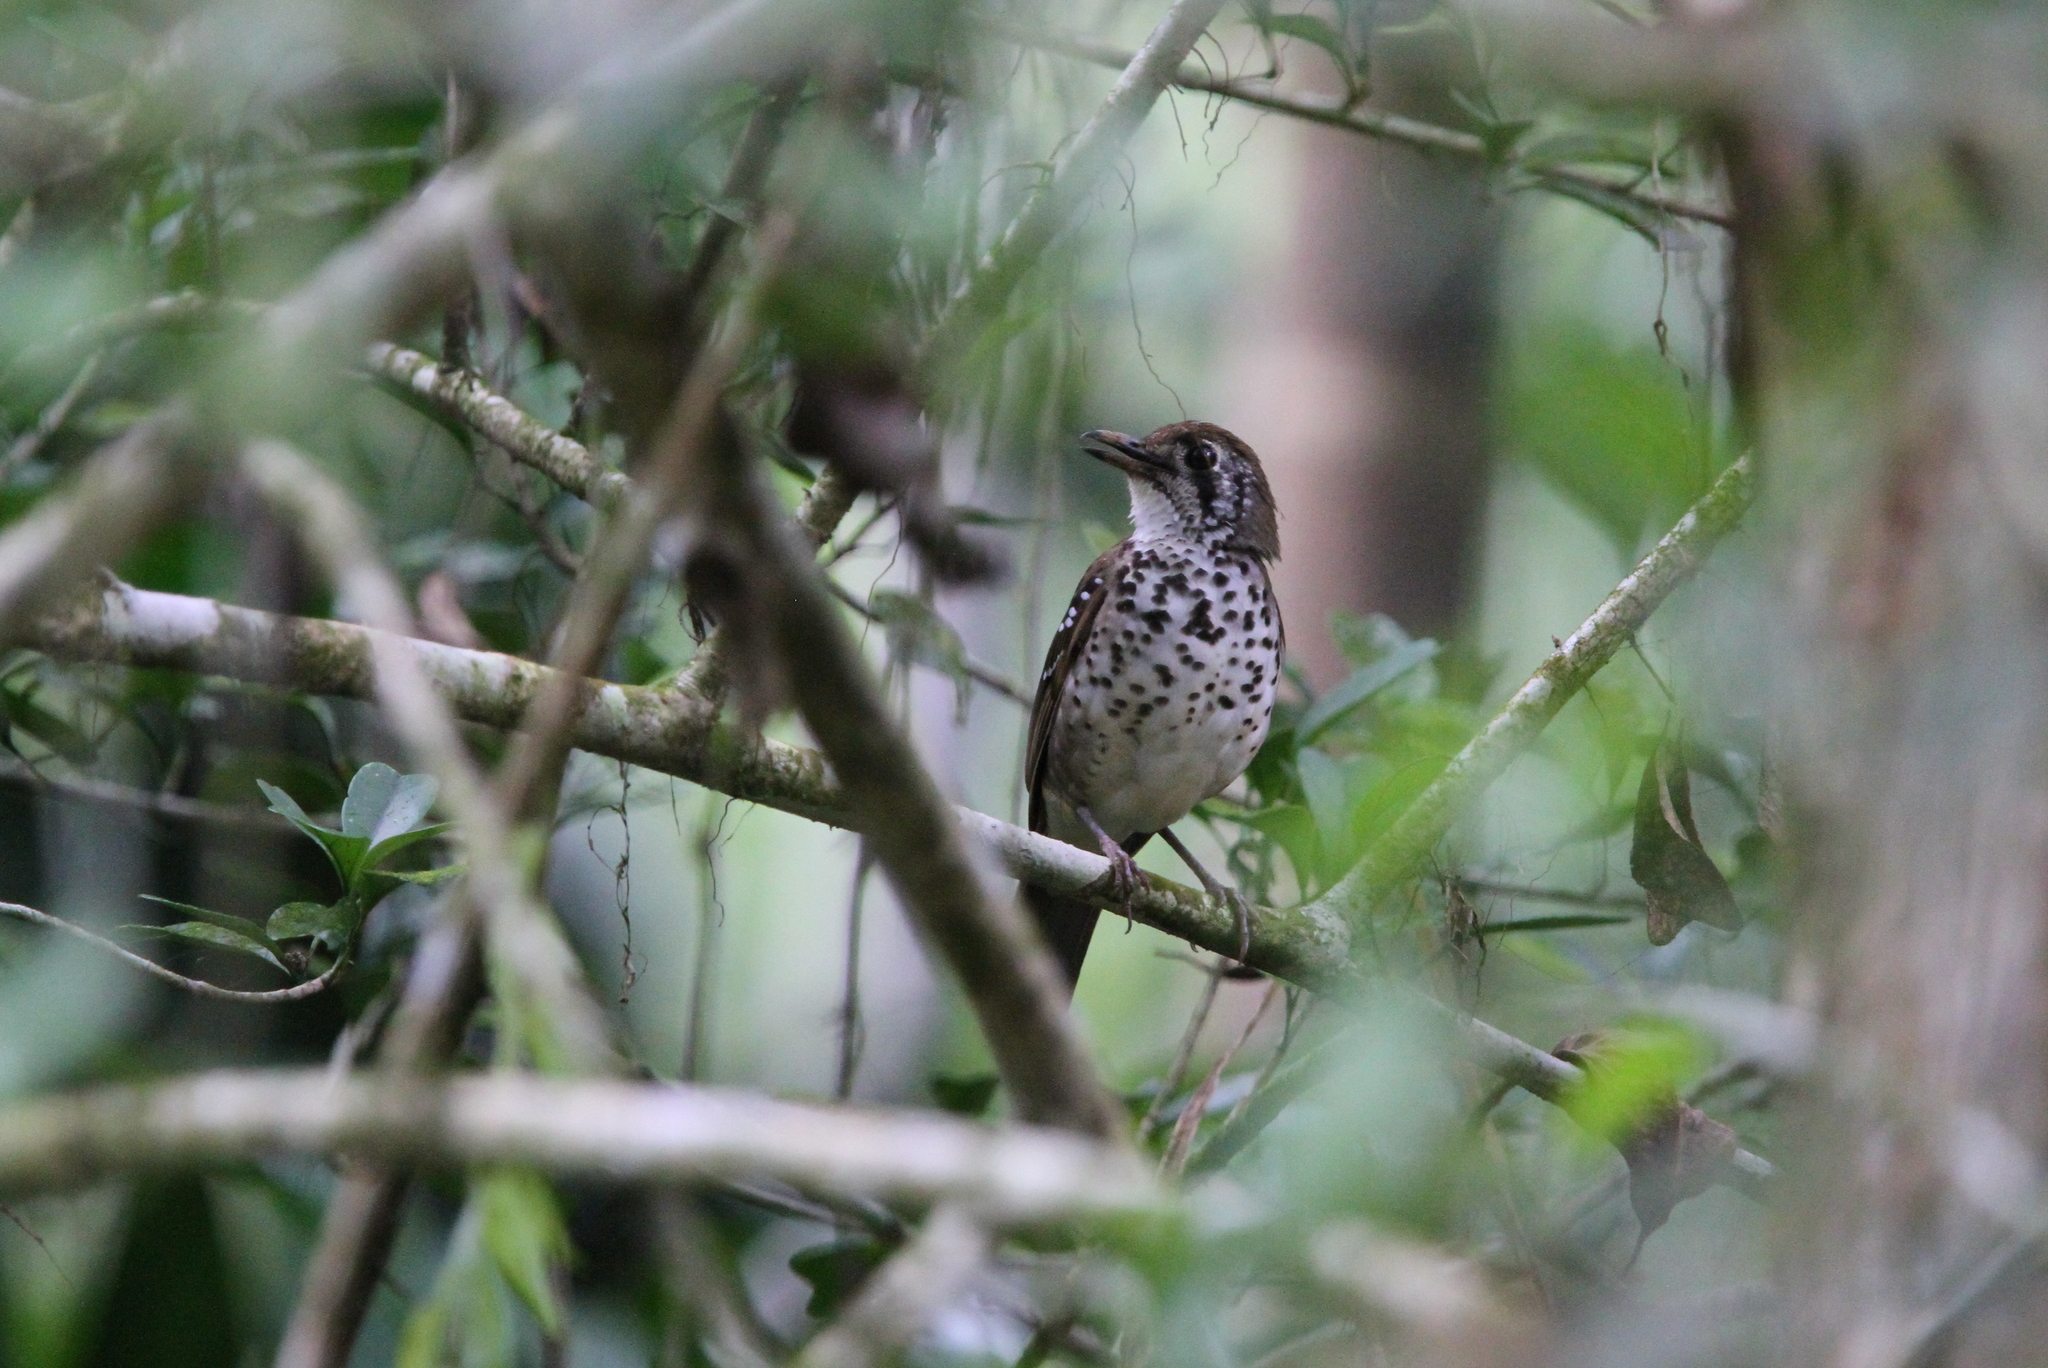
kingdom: Animalia
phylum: Chordata
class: Aves
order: Passeriformes
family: Turdidae
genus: Geokichla
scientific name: Geokichla spiloptera
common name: Spot-winged thrush
